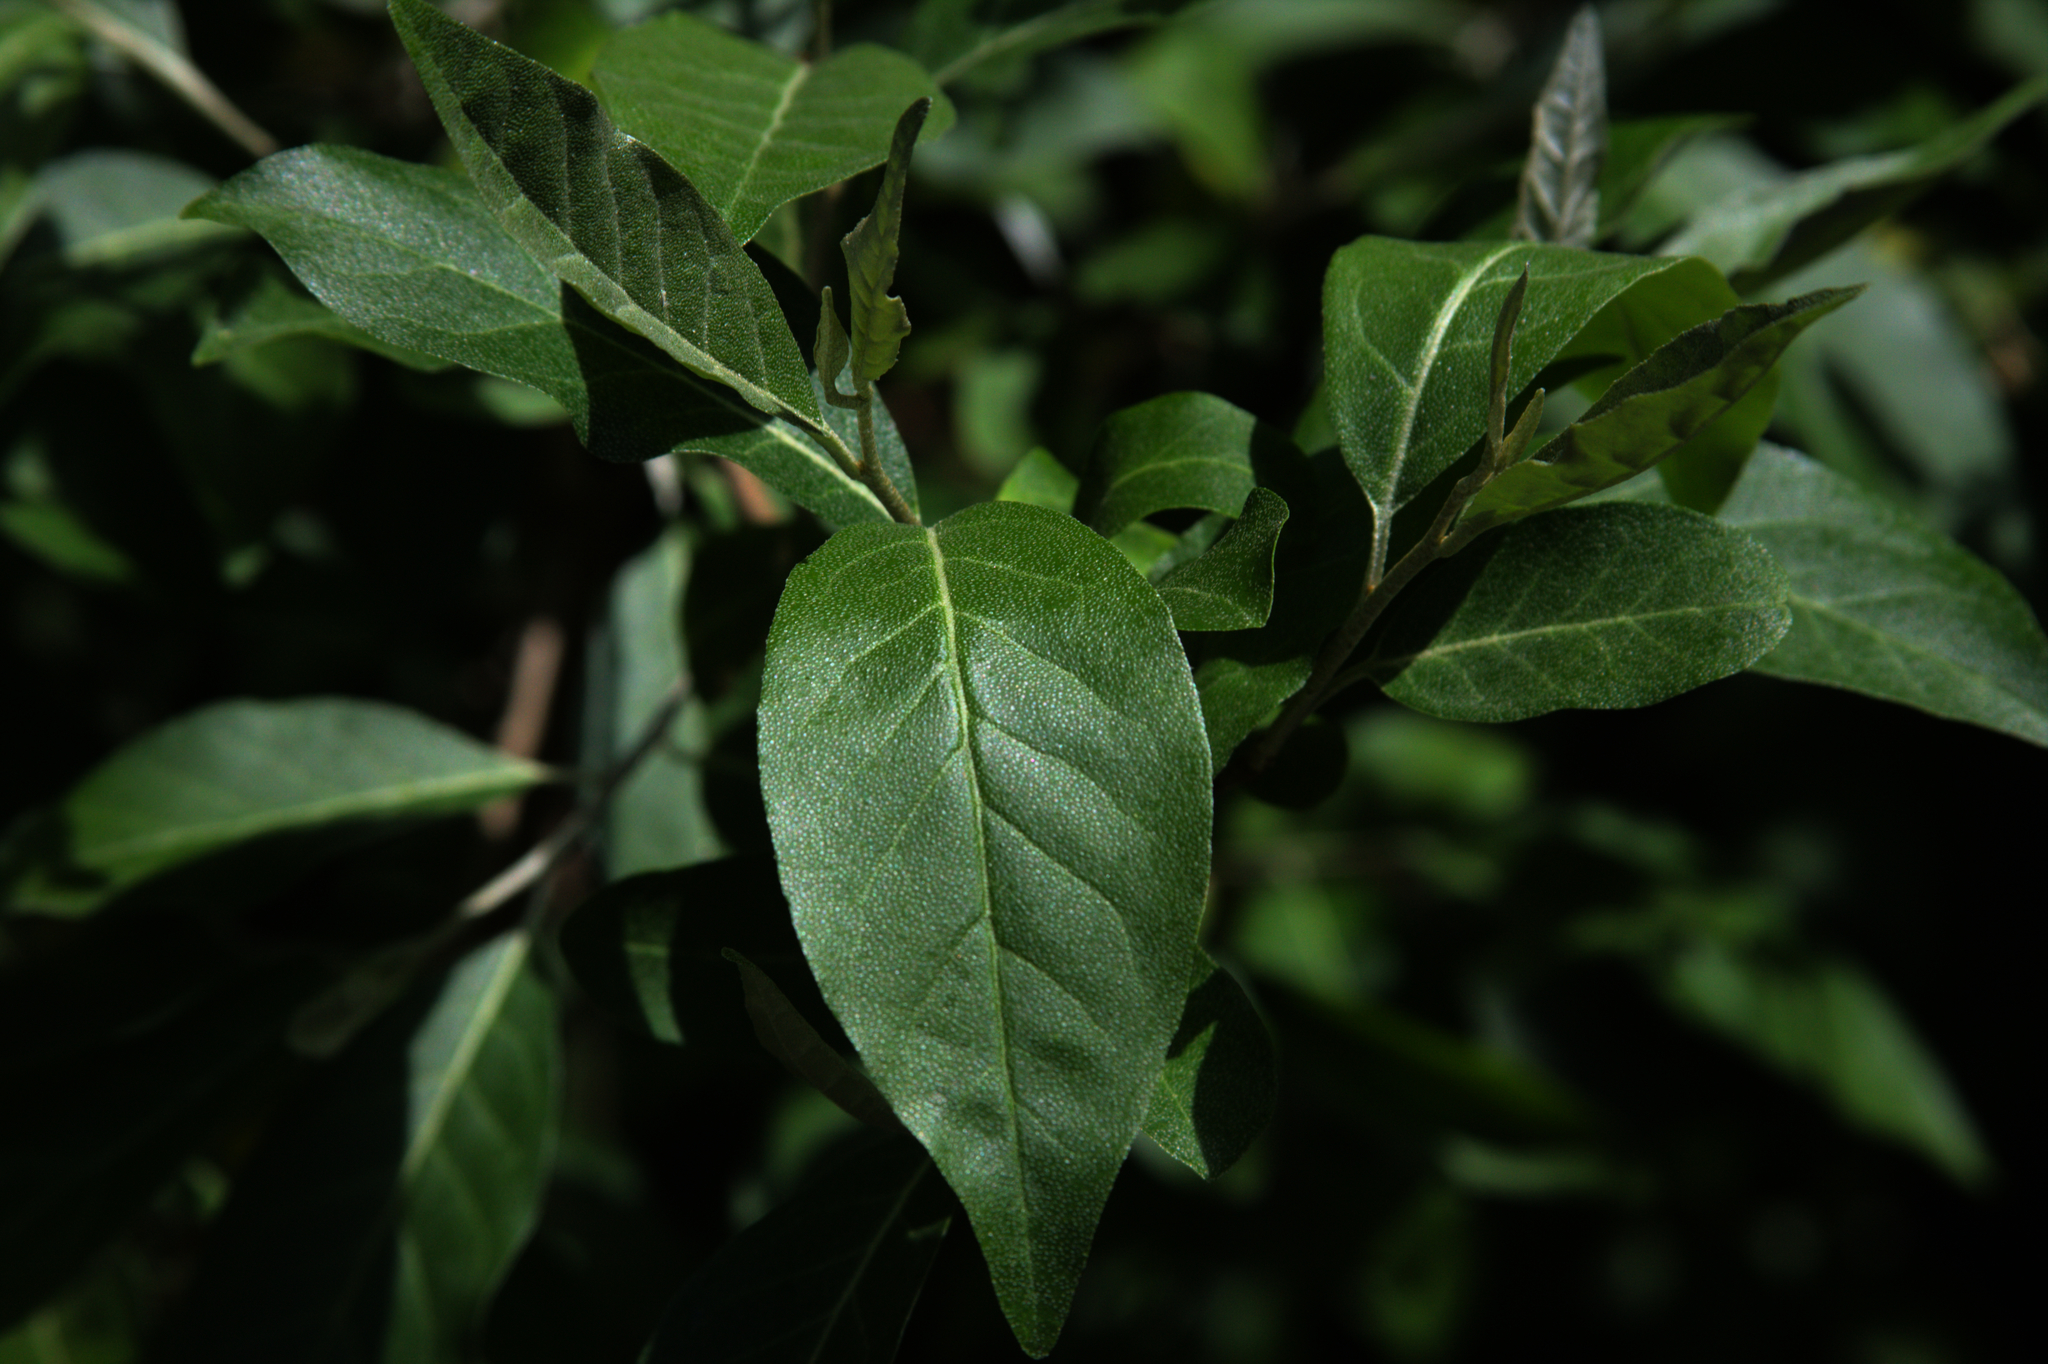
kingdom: Plantae
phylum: Tracheophyta
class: Magnoliopsida
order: Rosales
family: Elaeagnaceae
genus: Elaeagnus
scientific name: Elaeagnus umbellata
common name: Autumn olive
